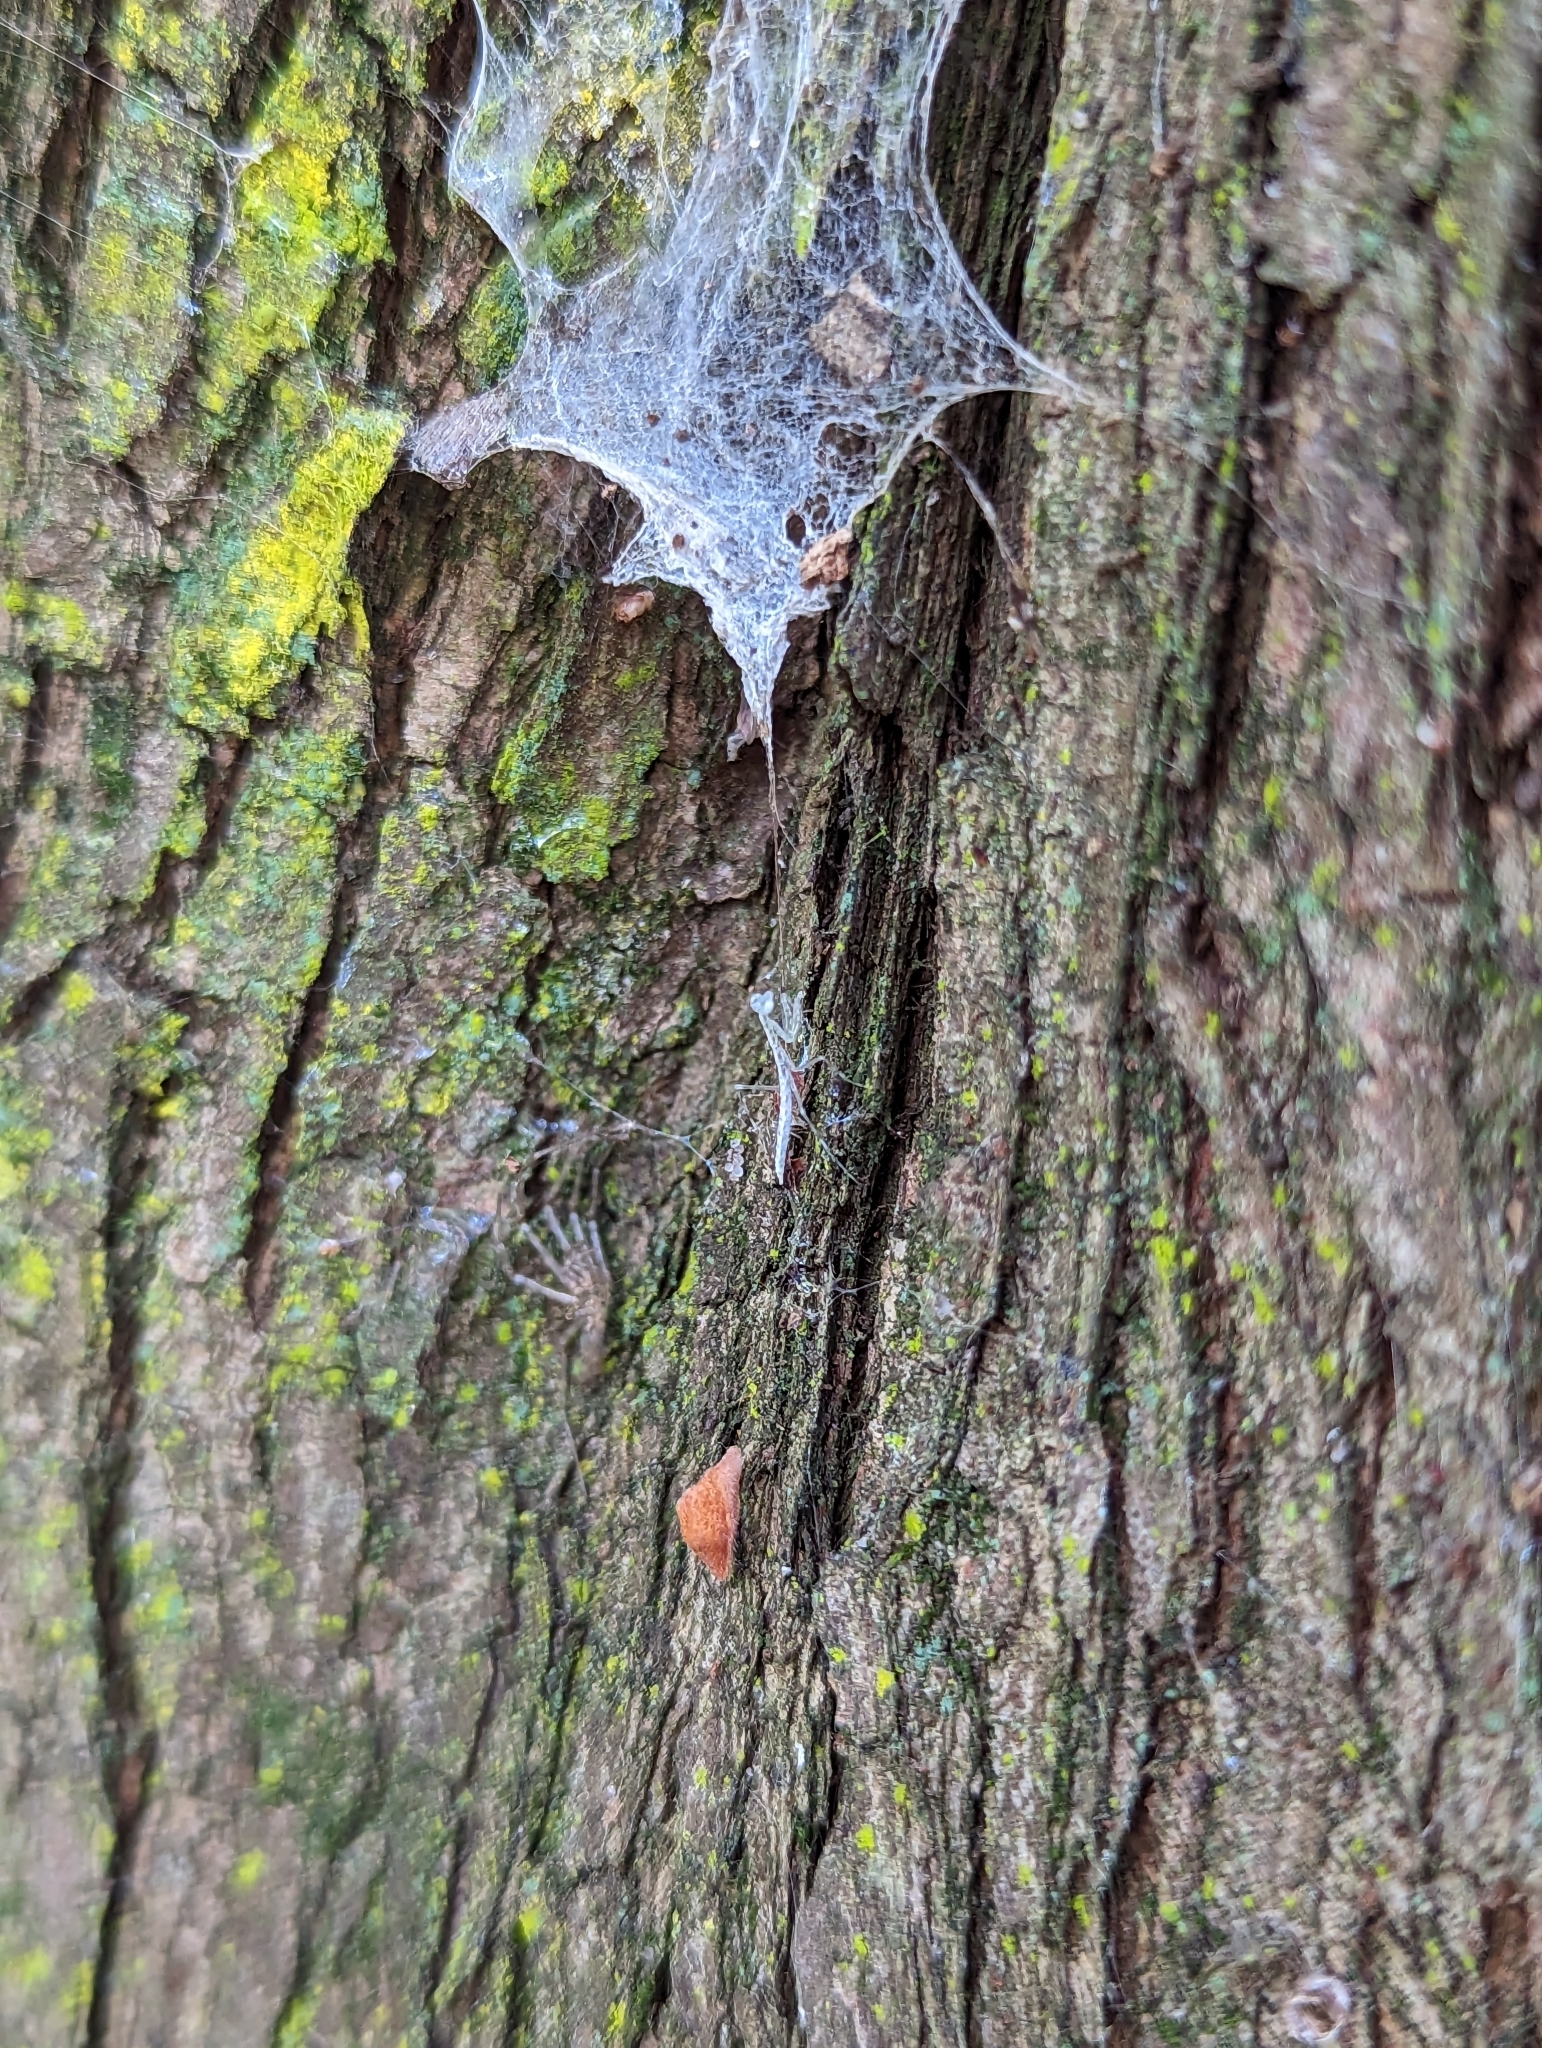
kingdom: Animalia
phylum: Arthropoda
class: Insecta
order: Mantodea
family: Nanomantidae
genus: Kongobatha
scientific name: Kongobatha diademata
